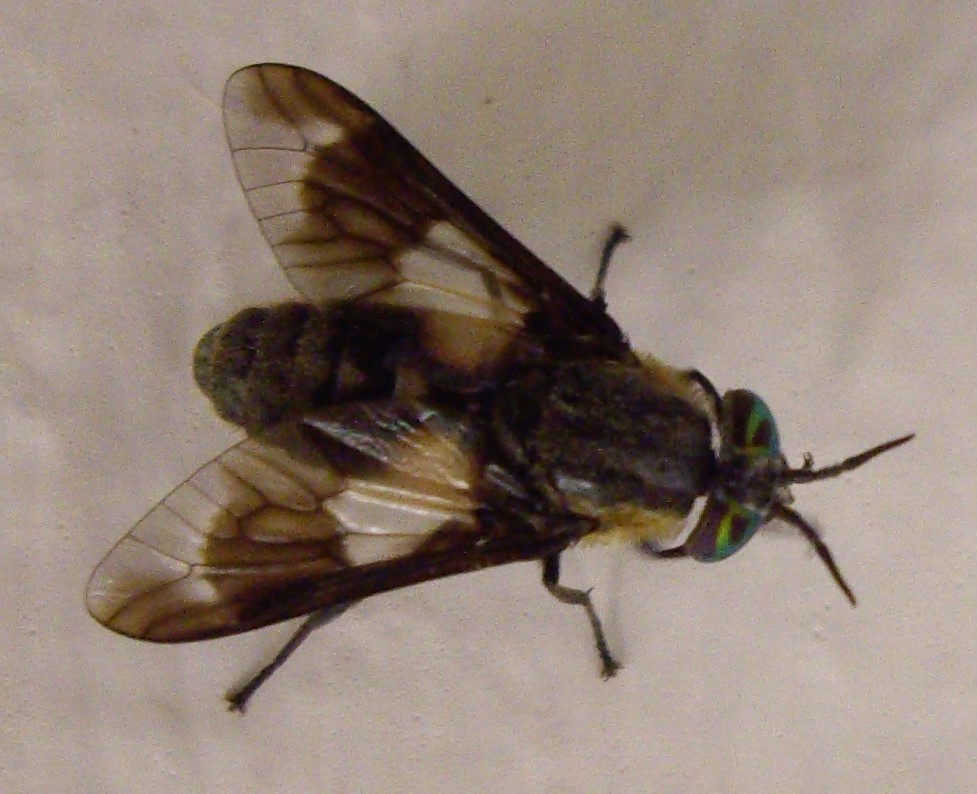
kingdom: Animalia
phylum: Arthropoda
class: Insecta
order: Diptera
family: Tabanidae
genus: Chrysops
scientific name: Chrysops caecutiens
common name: Splayed deerfly
